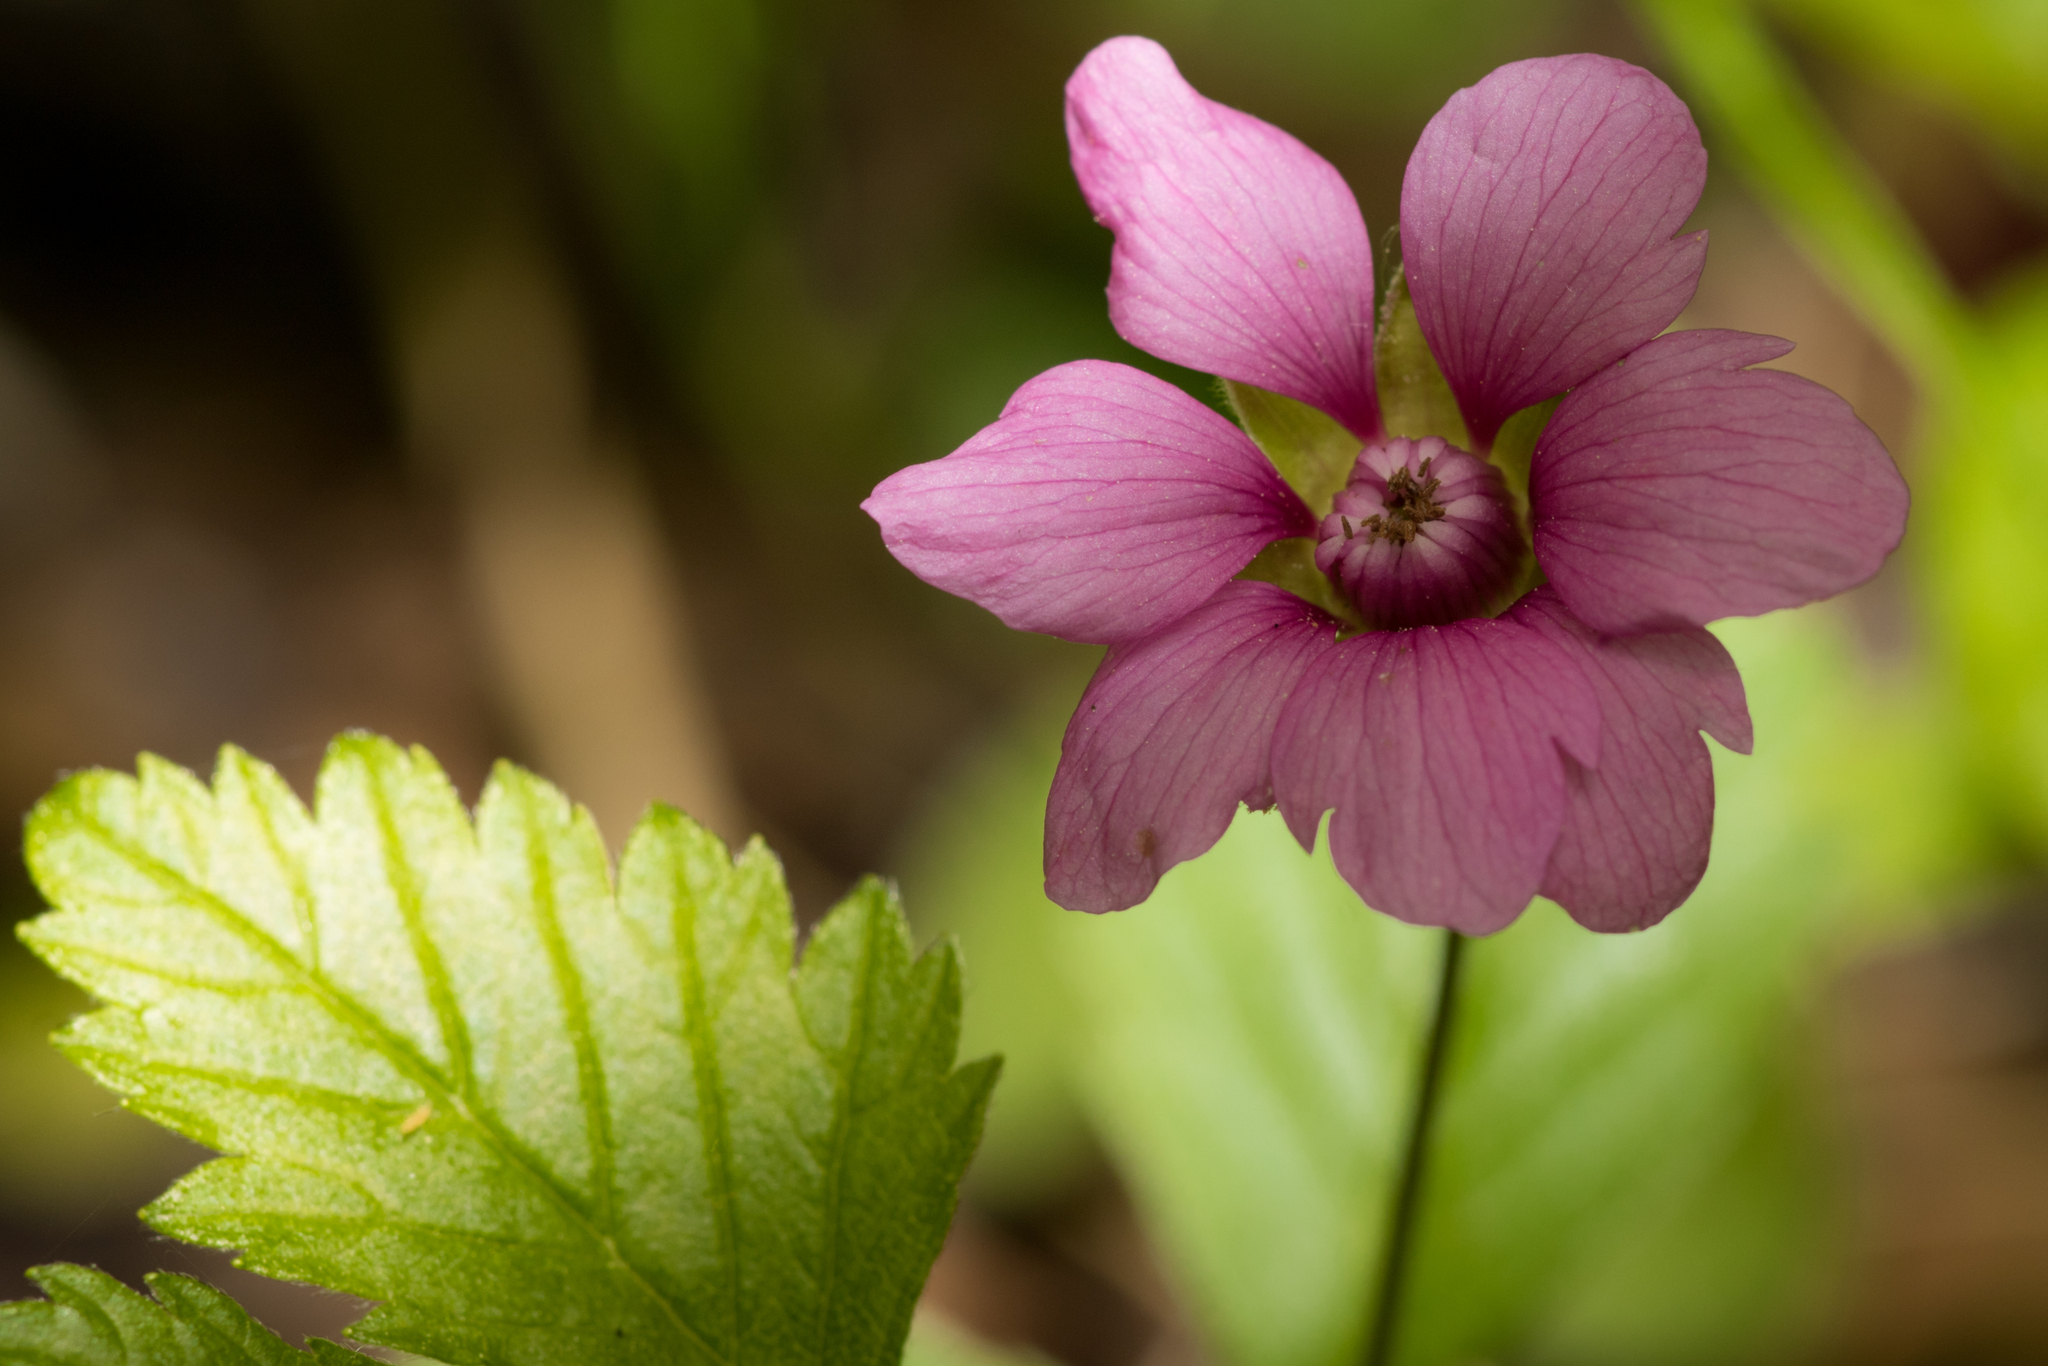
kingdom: Plantae
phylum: Tracheophyta
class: Magnoliopsida
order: Rosales
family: Rosaceae
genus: Rubus
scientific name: Rubus arcticus
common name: Arctic bramble
